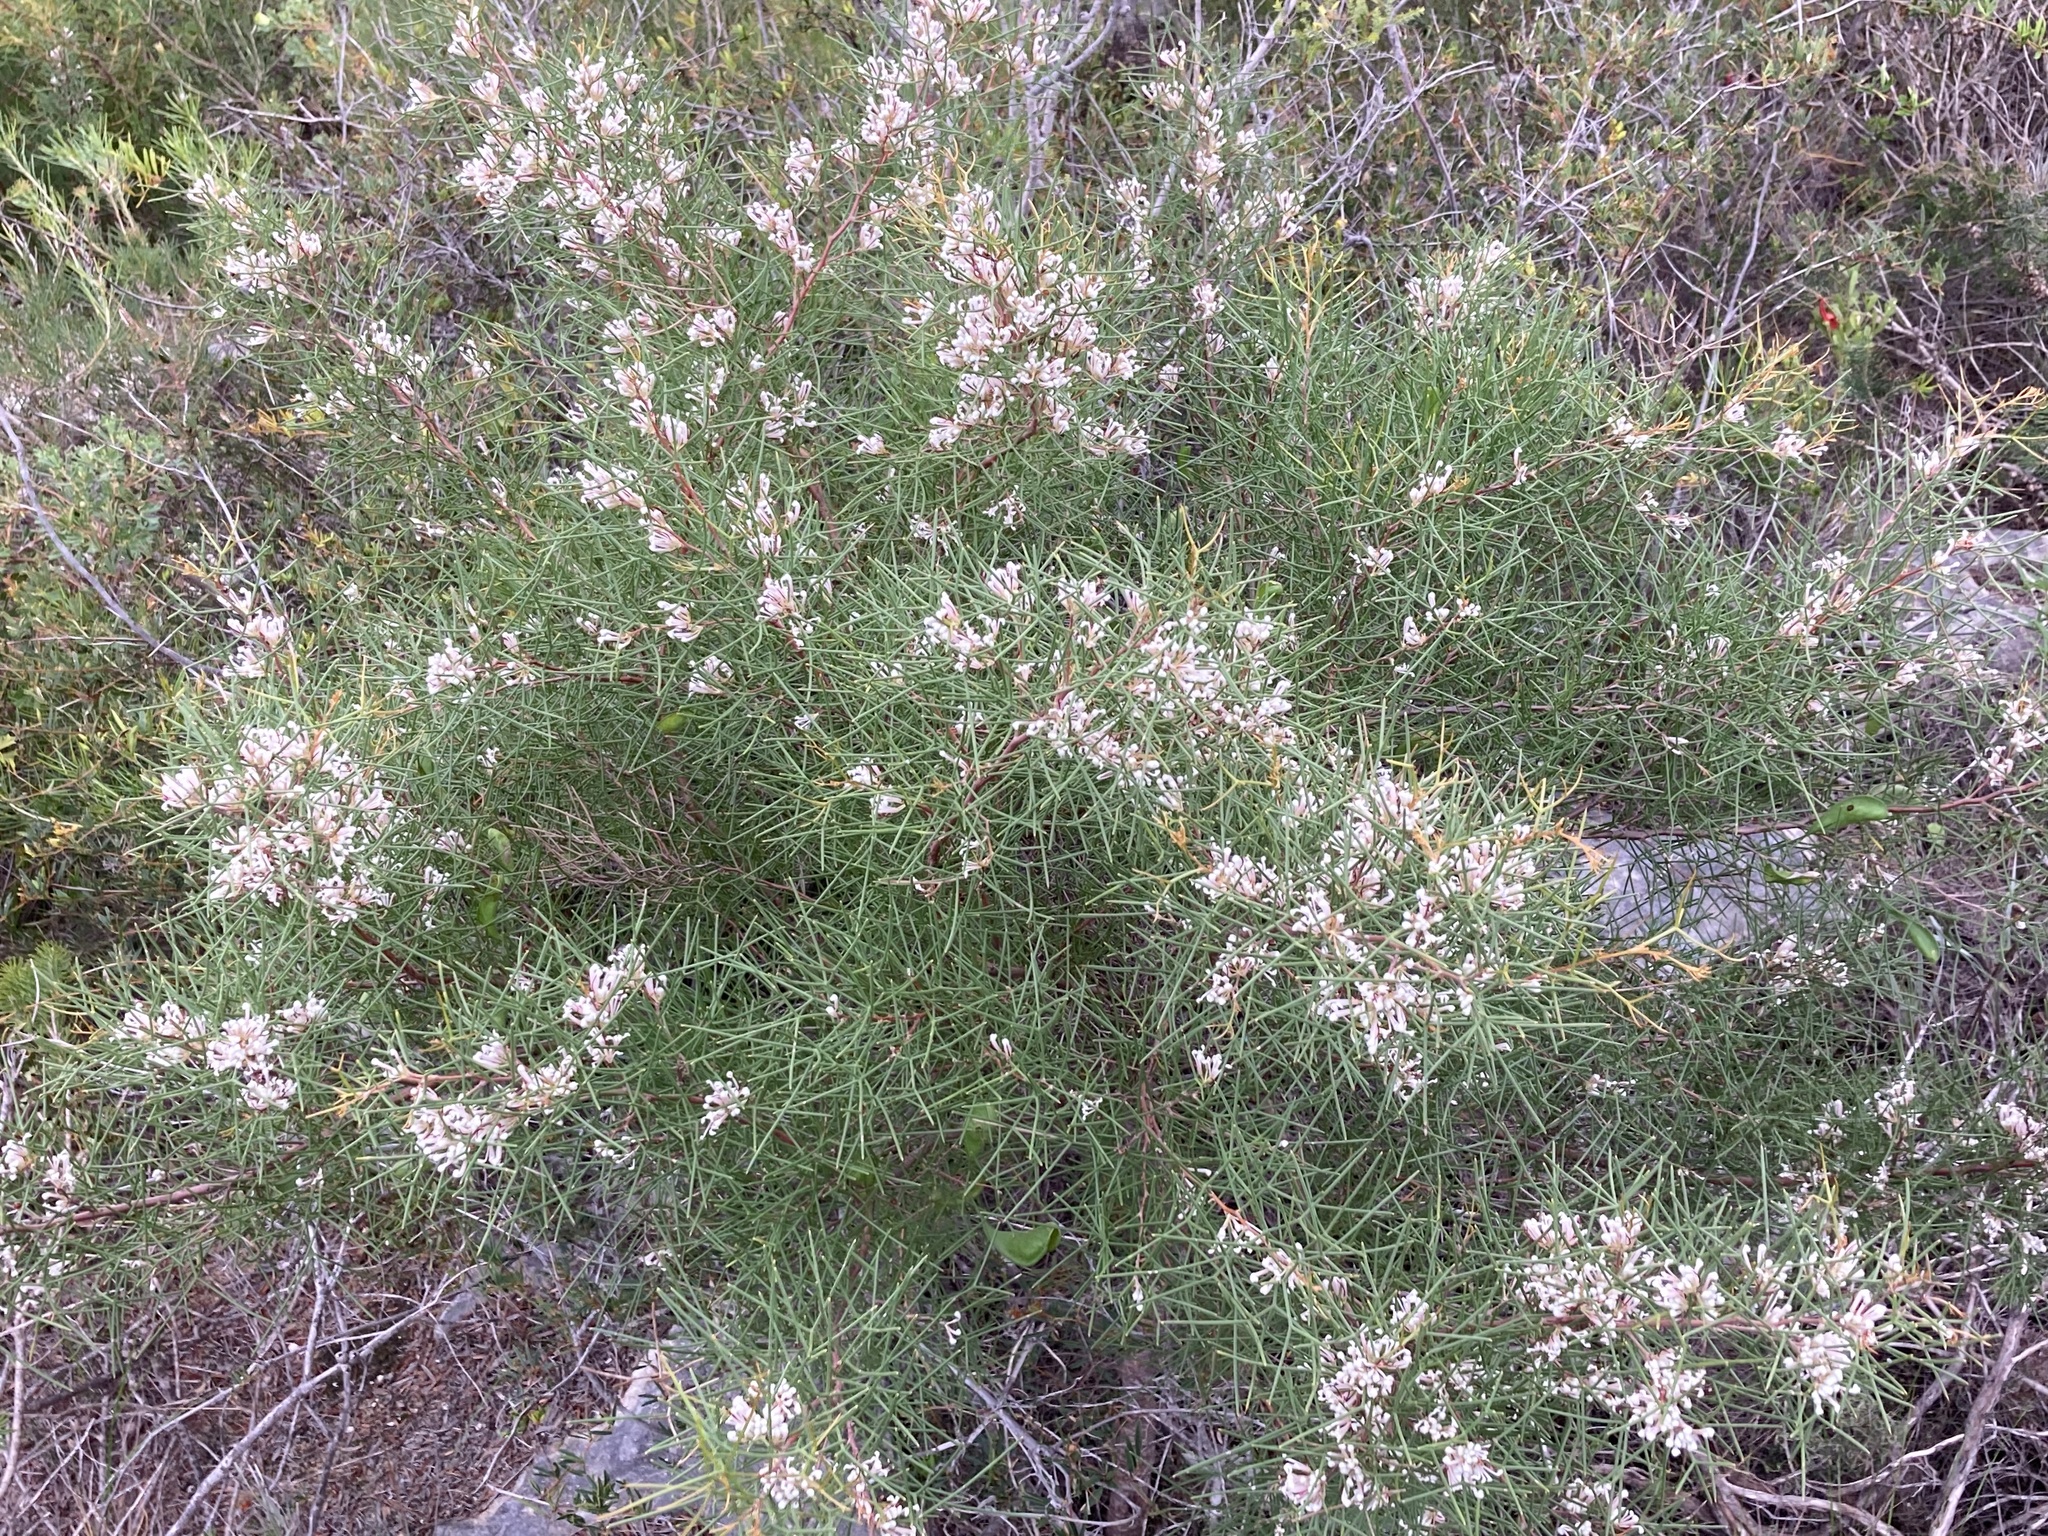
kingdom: Plantae
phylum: Tracheophyta
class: Magnoliopsida
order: Proteales
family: Proteaceae
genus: Hakea
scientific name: Hakea trifurcata
